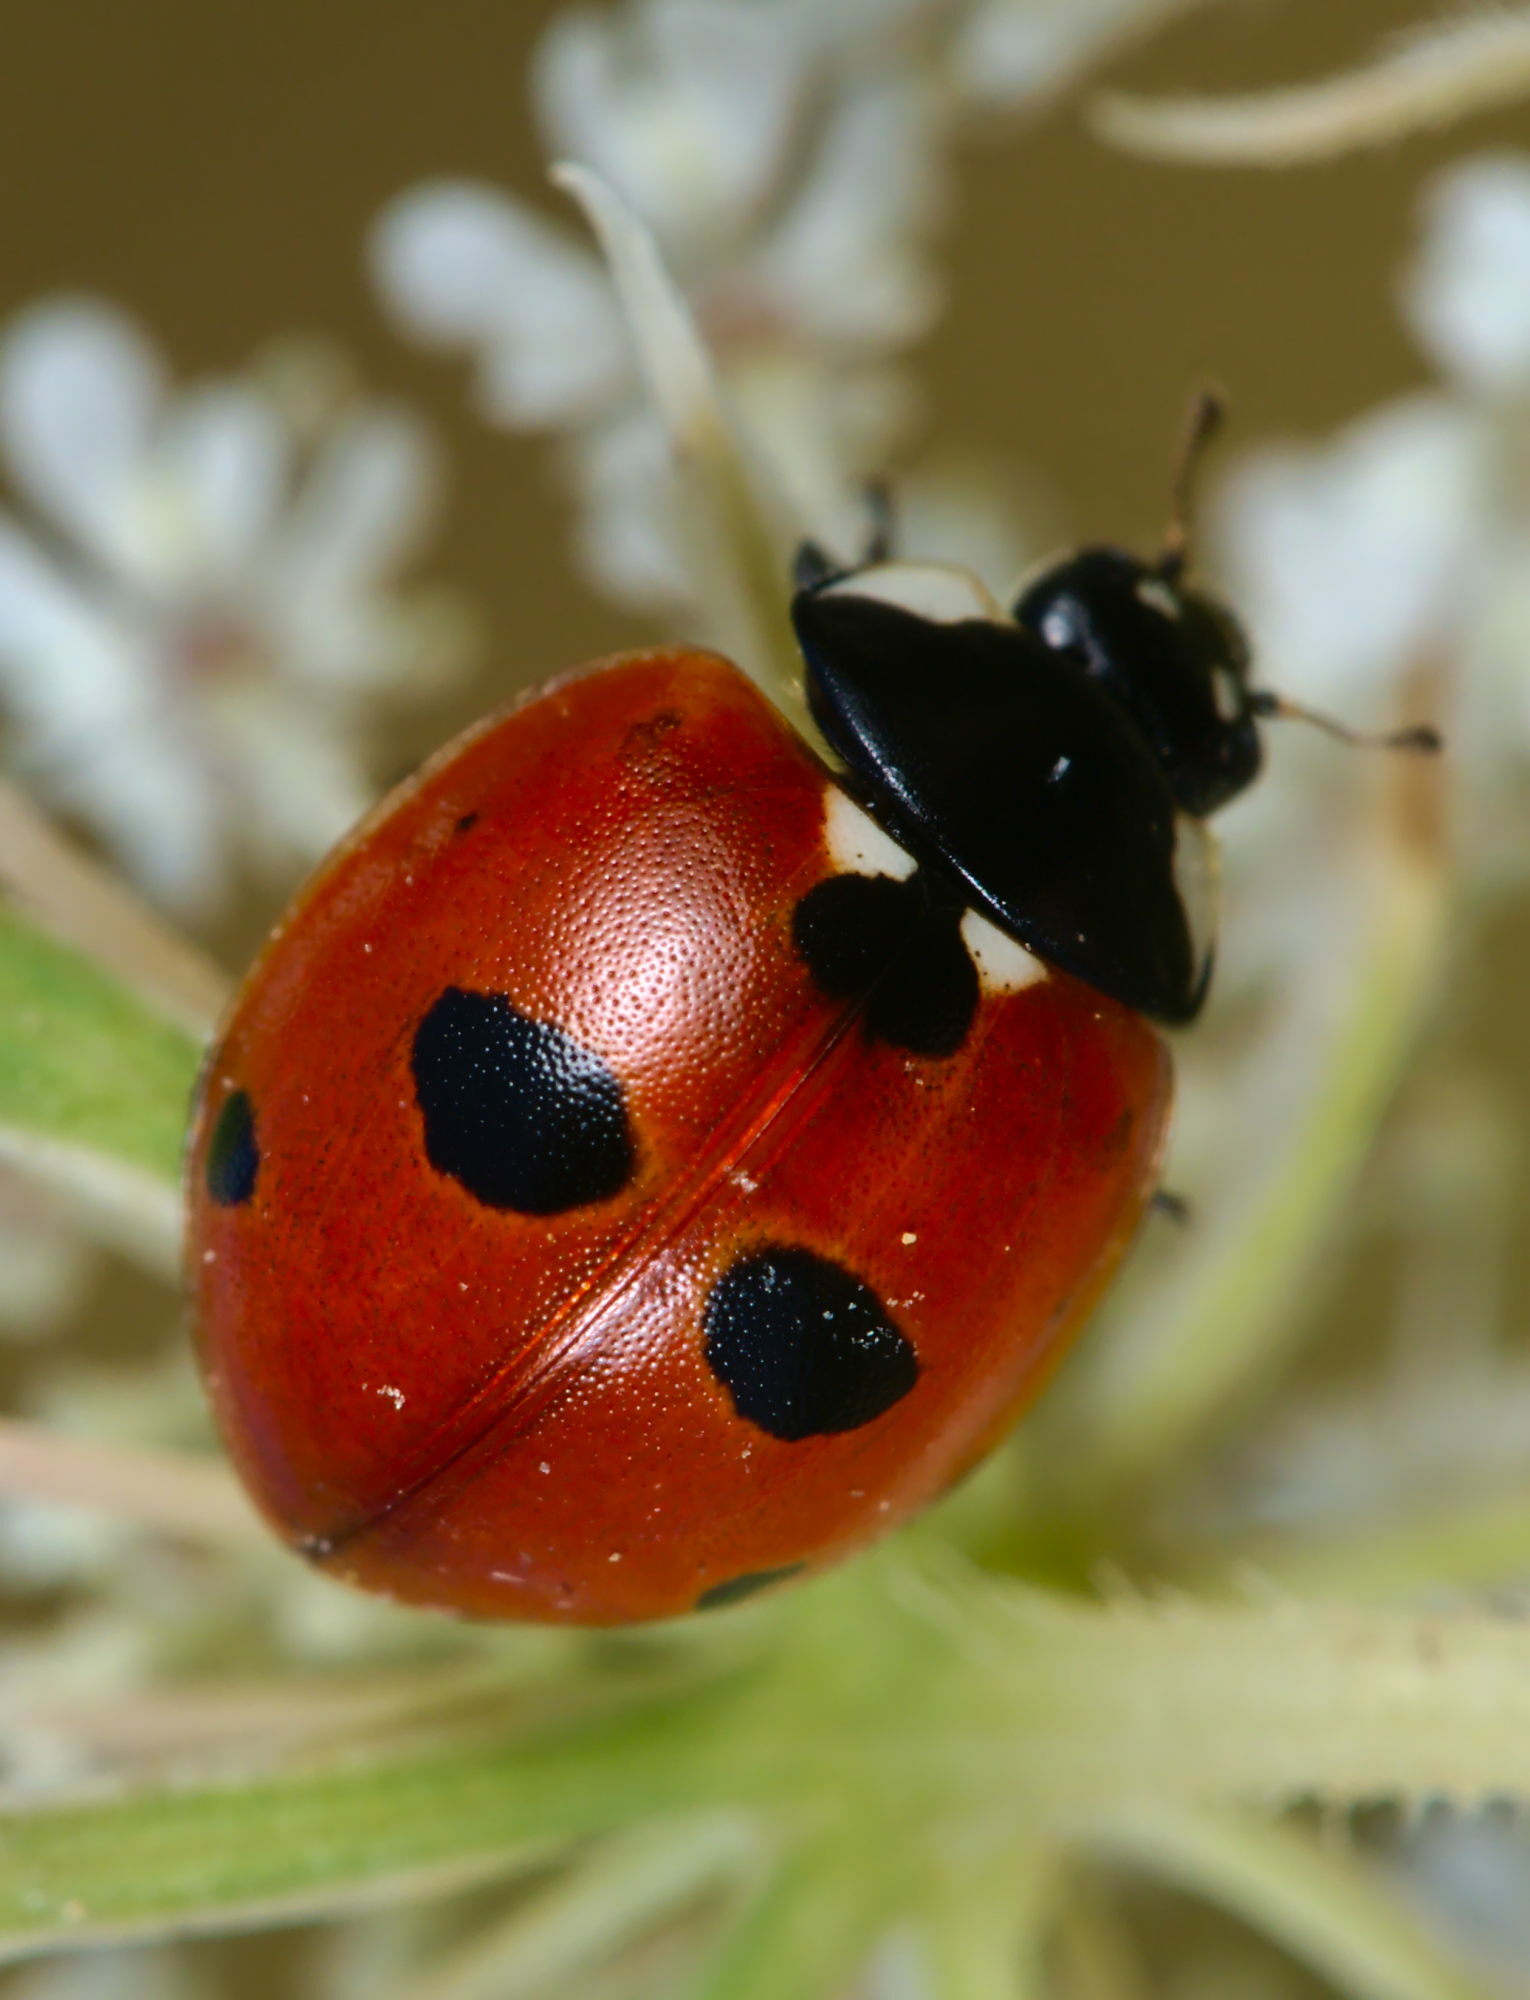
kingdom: Animalia
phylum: Arthropoda
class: Insecta
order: Coleoptera
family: Coccinellidae
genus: Coccinella
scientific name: Coccinella quinquepunctata
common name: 5-spot ladybird
